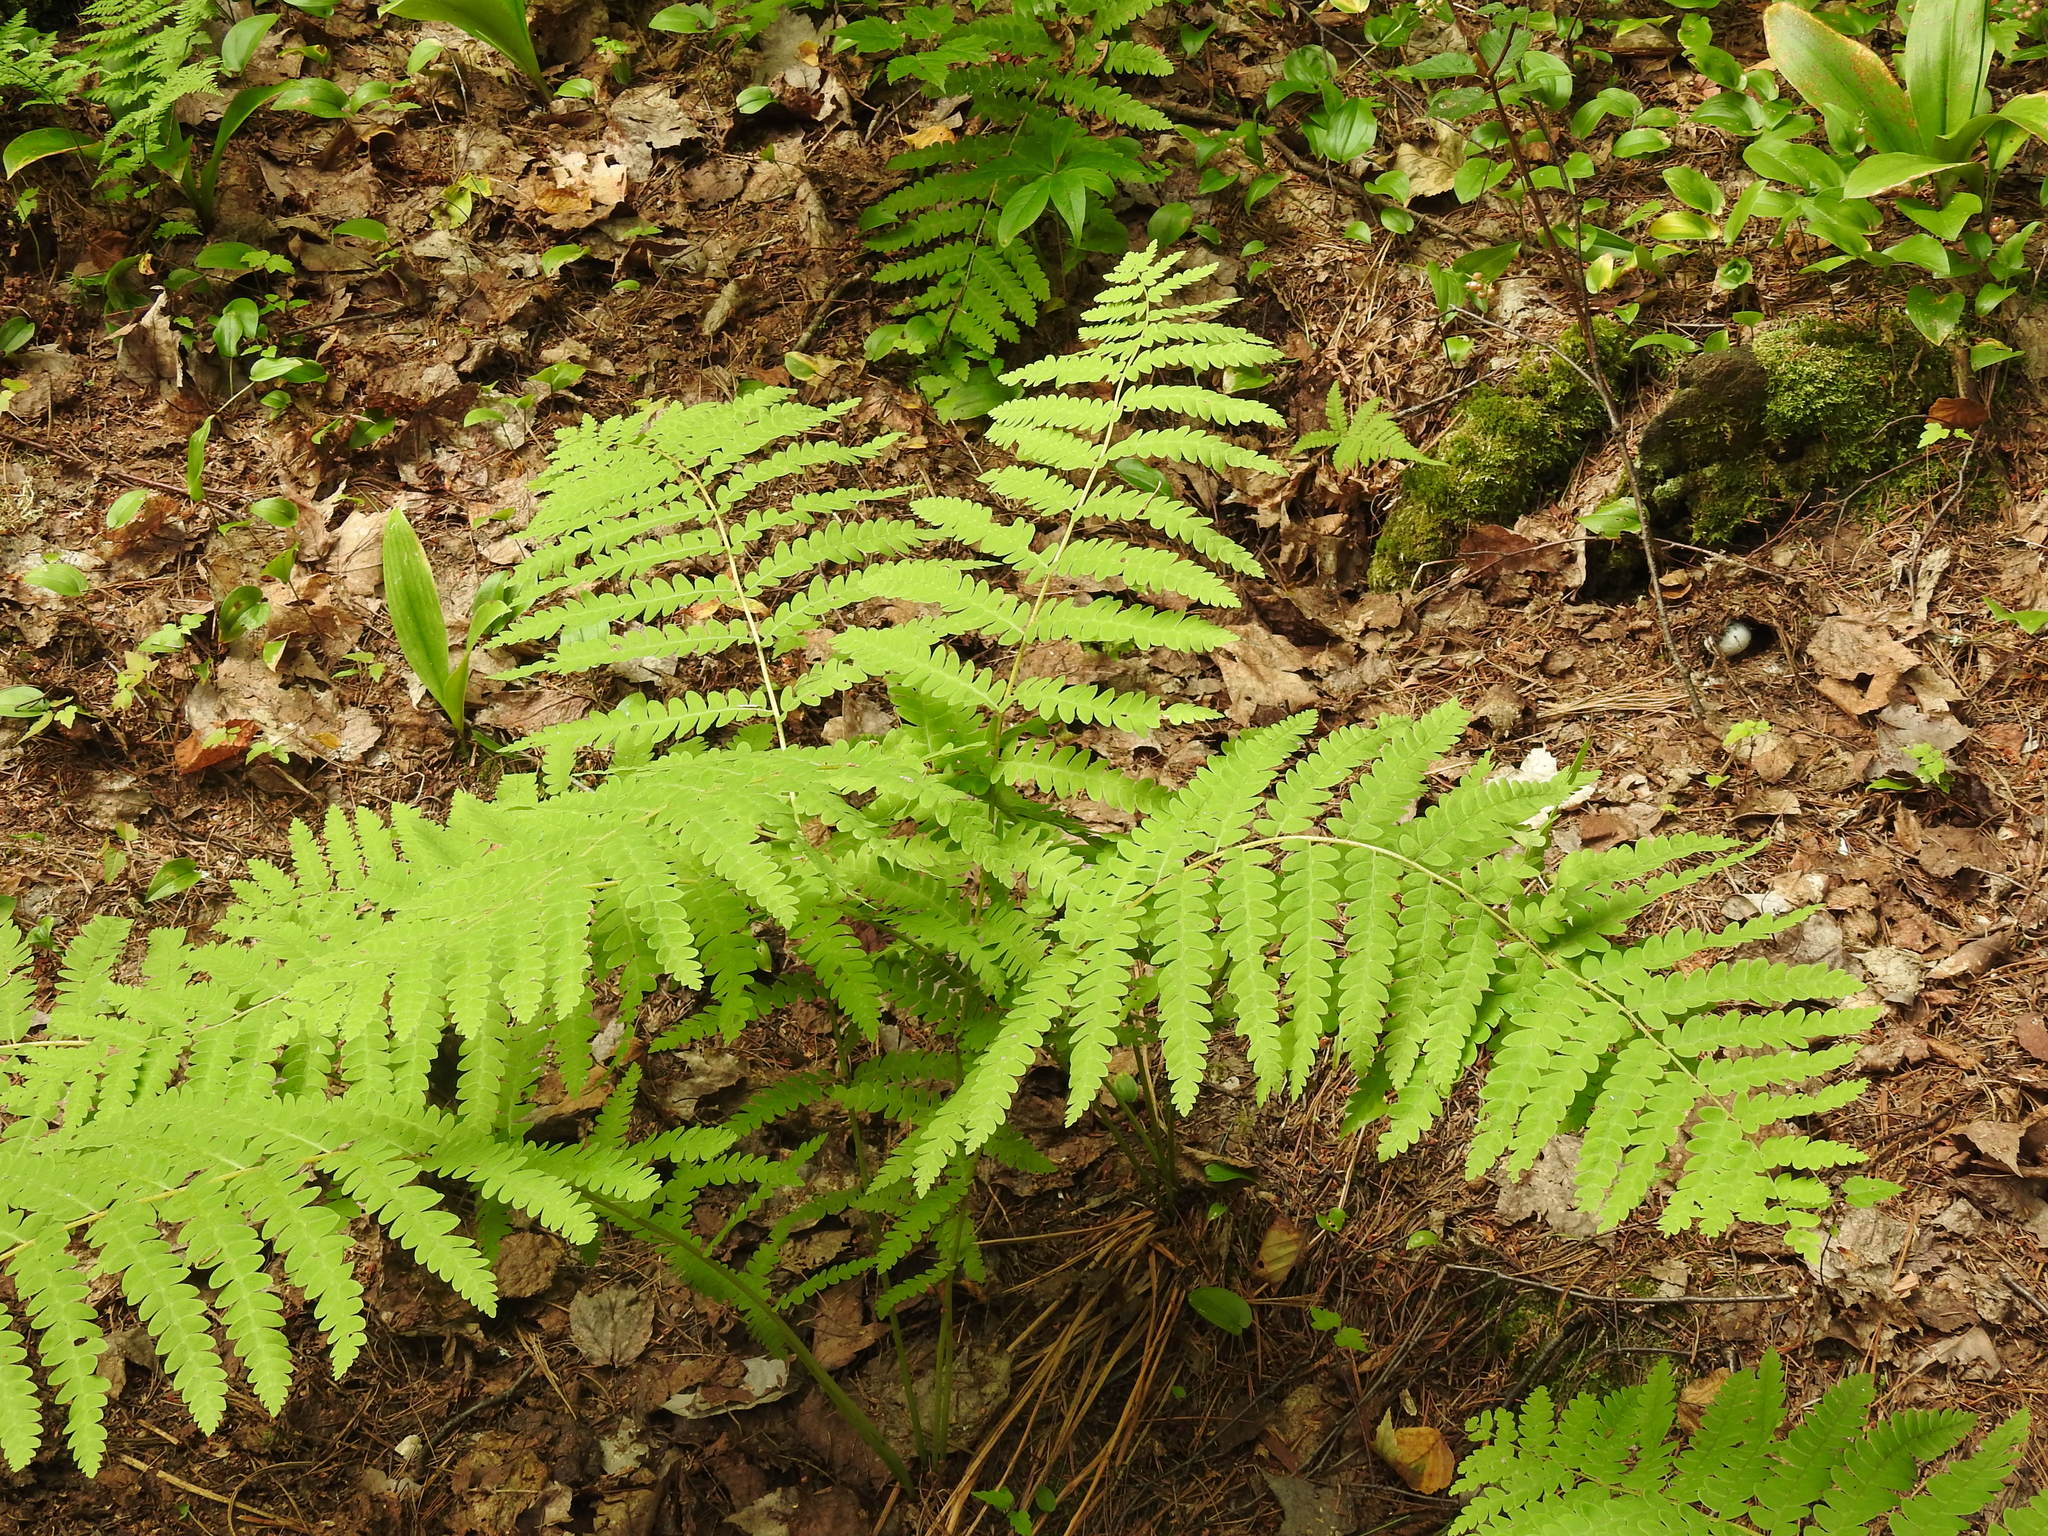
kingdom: Plantae
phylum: Tracheophyta
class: Polypodiopsida
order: Osmundales
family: Osmundaceae
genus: Claytosmunda
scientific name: Claytosmunda claytoniana
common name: Clayton's fern
